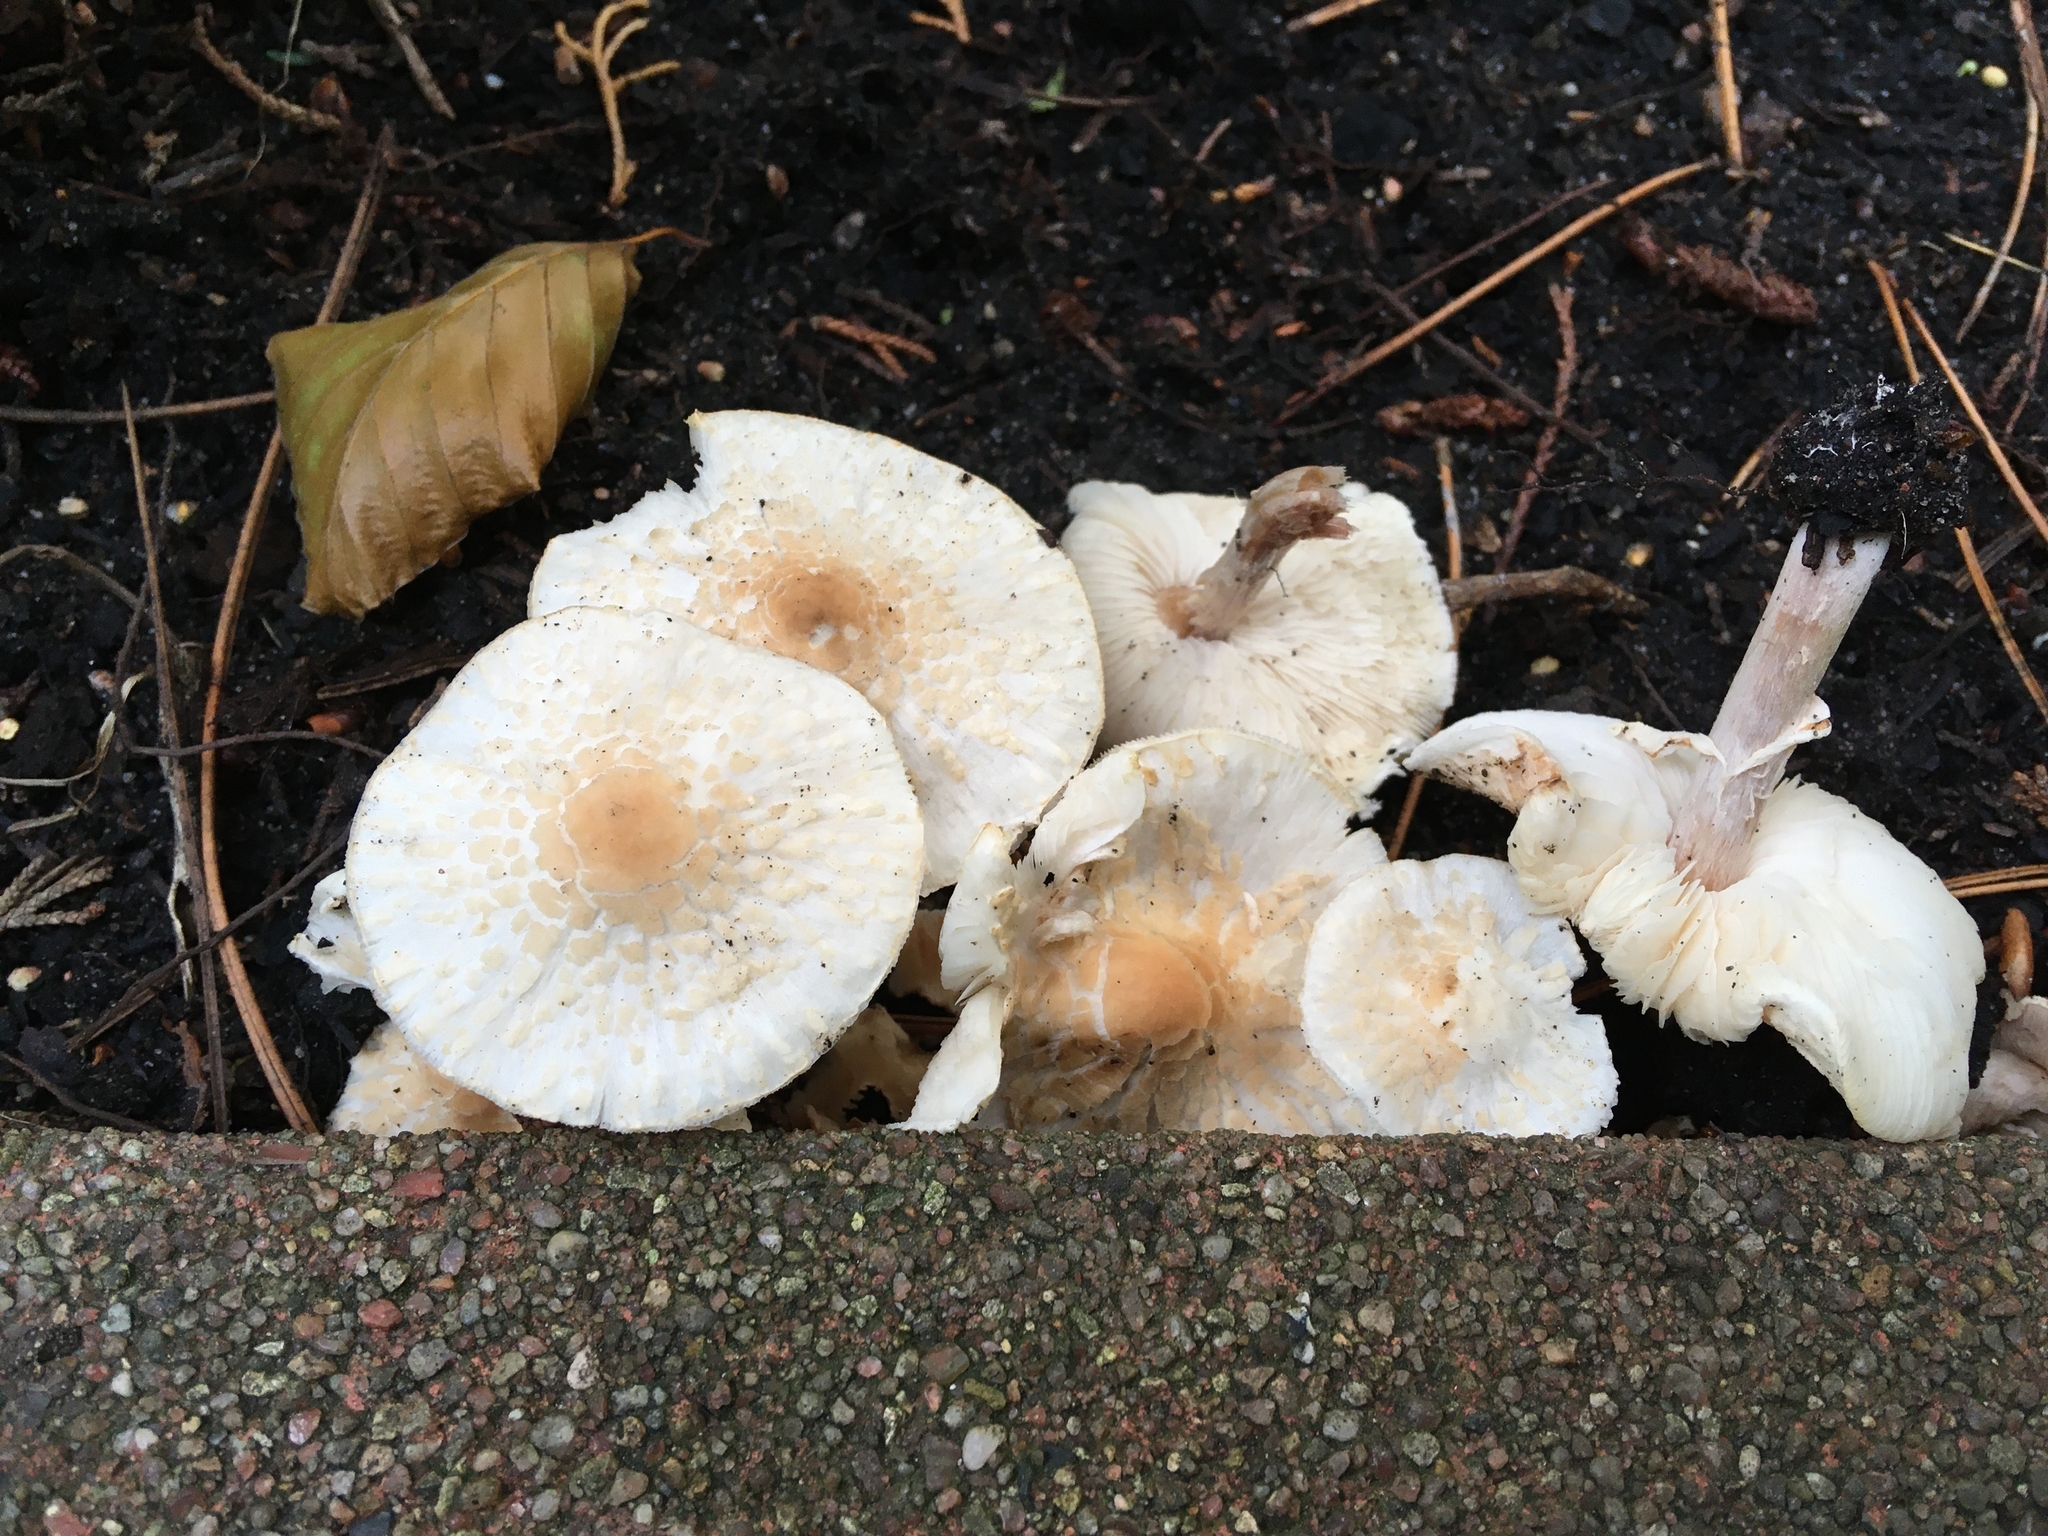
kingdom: Fungi
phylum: Basidiomycota
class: Agaricomycetes
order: Agaricales
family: Agaricaceae
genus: Lepiota
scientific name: Lepiota cristata
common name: Stinking dapperling
